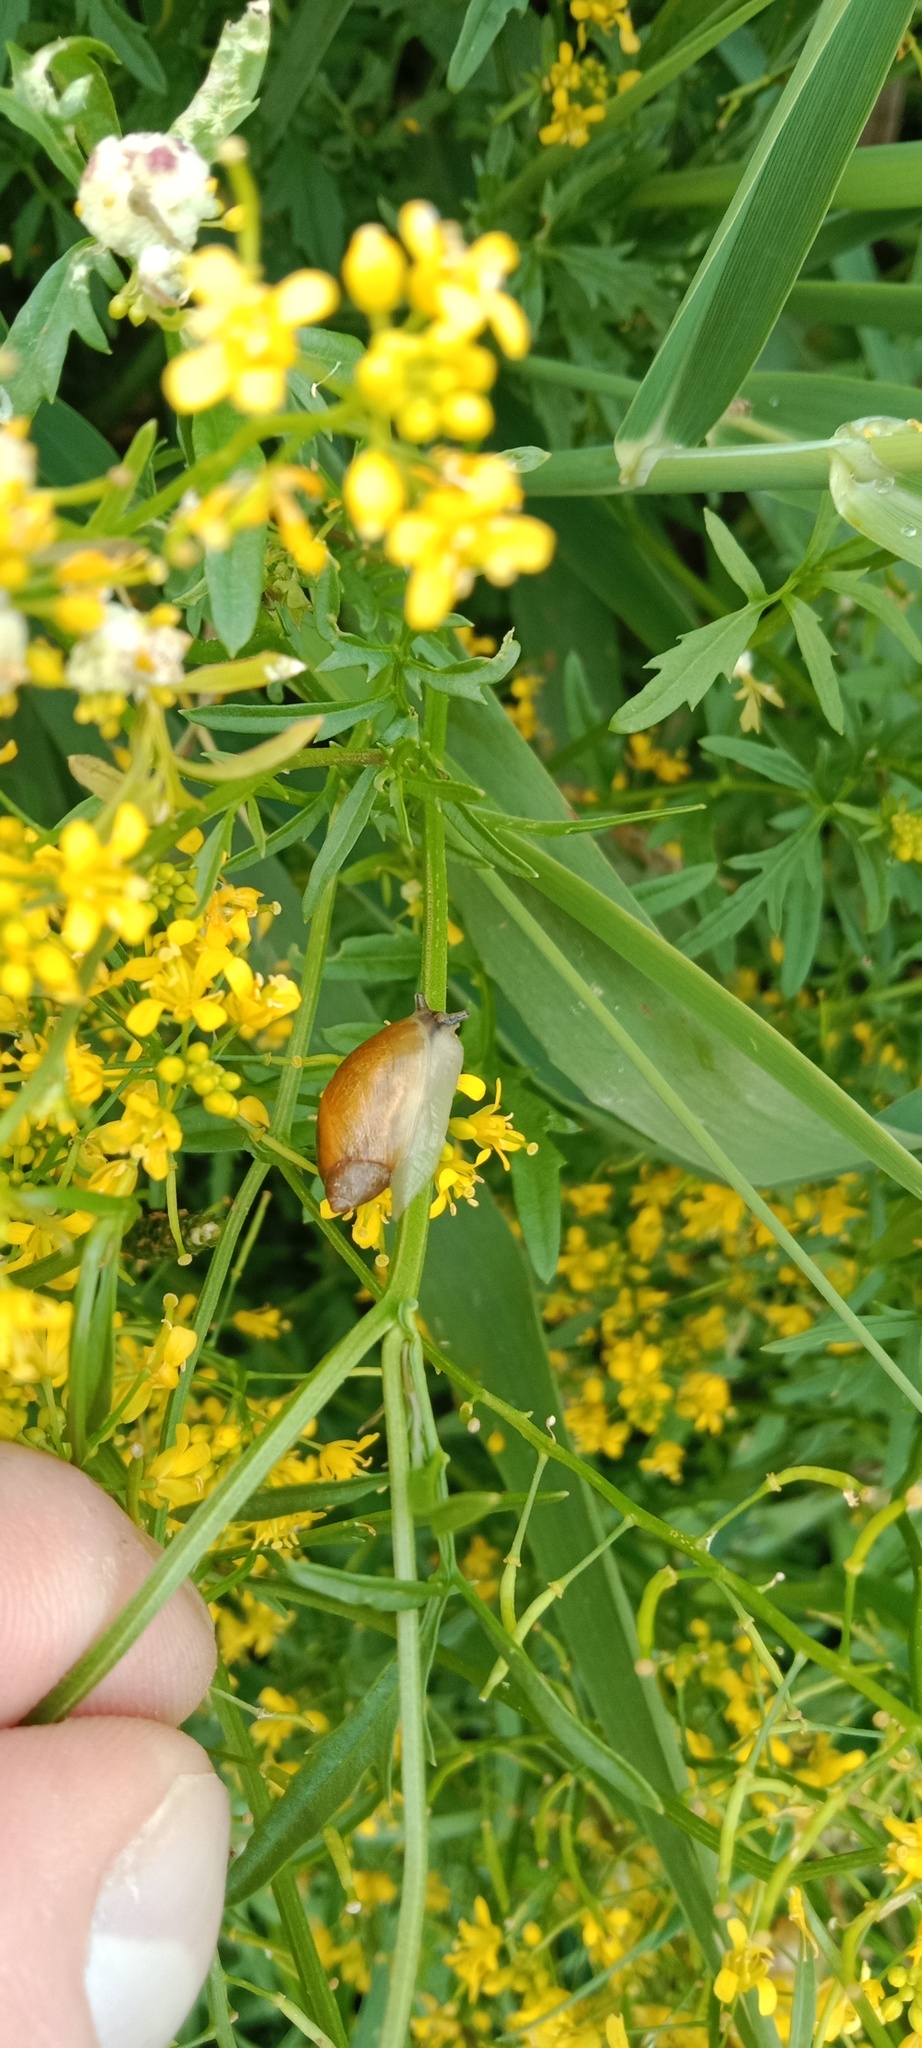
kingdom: Animalia
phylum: Mollusca
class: Gastropoda
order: Stylommatophora
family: Succineidae
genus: Succinea
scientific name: Succinea putris
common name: European ambersnail
